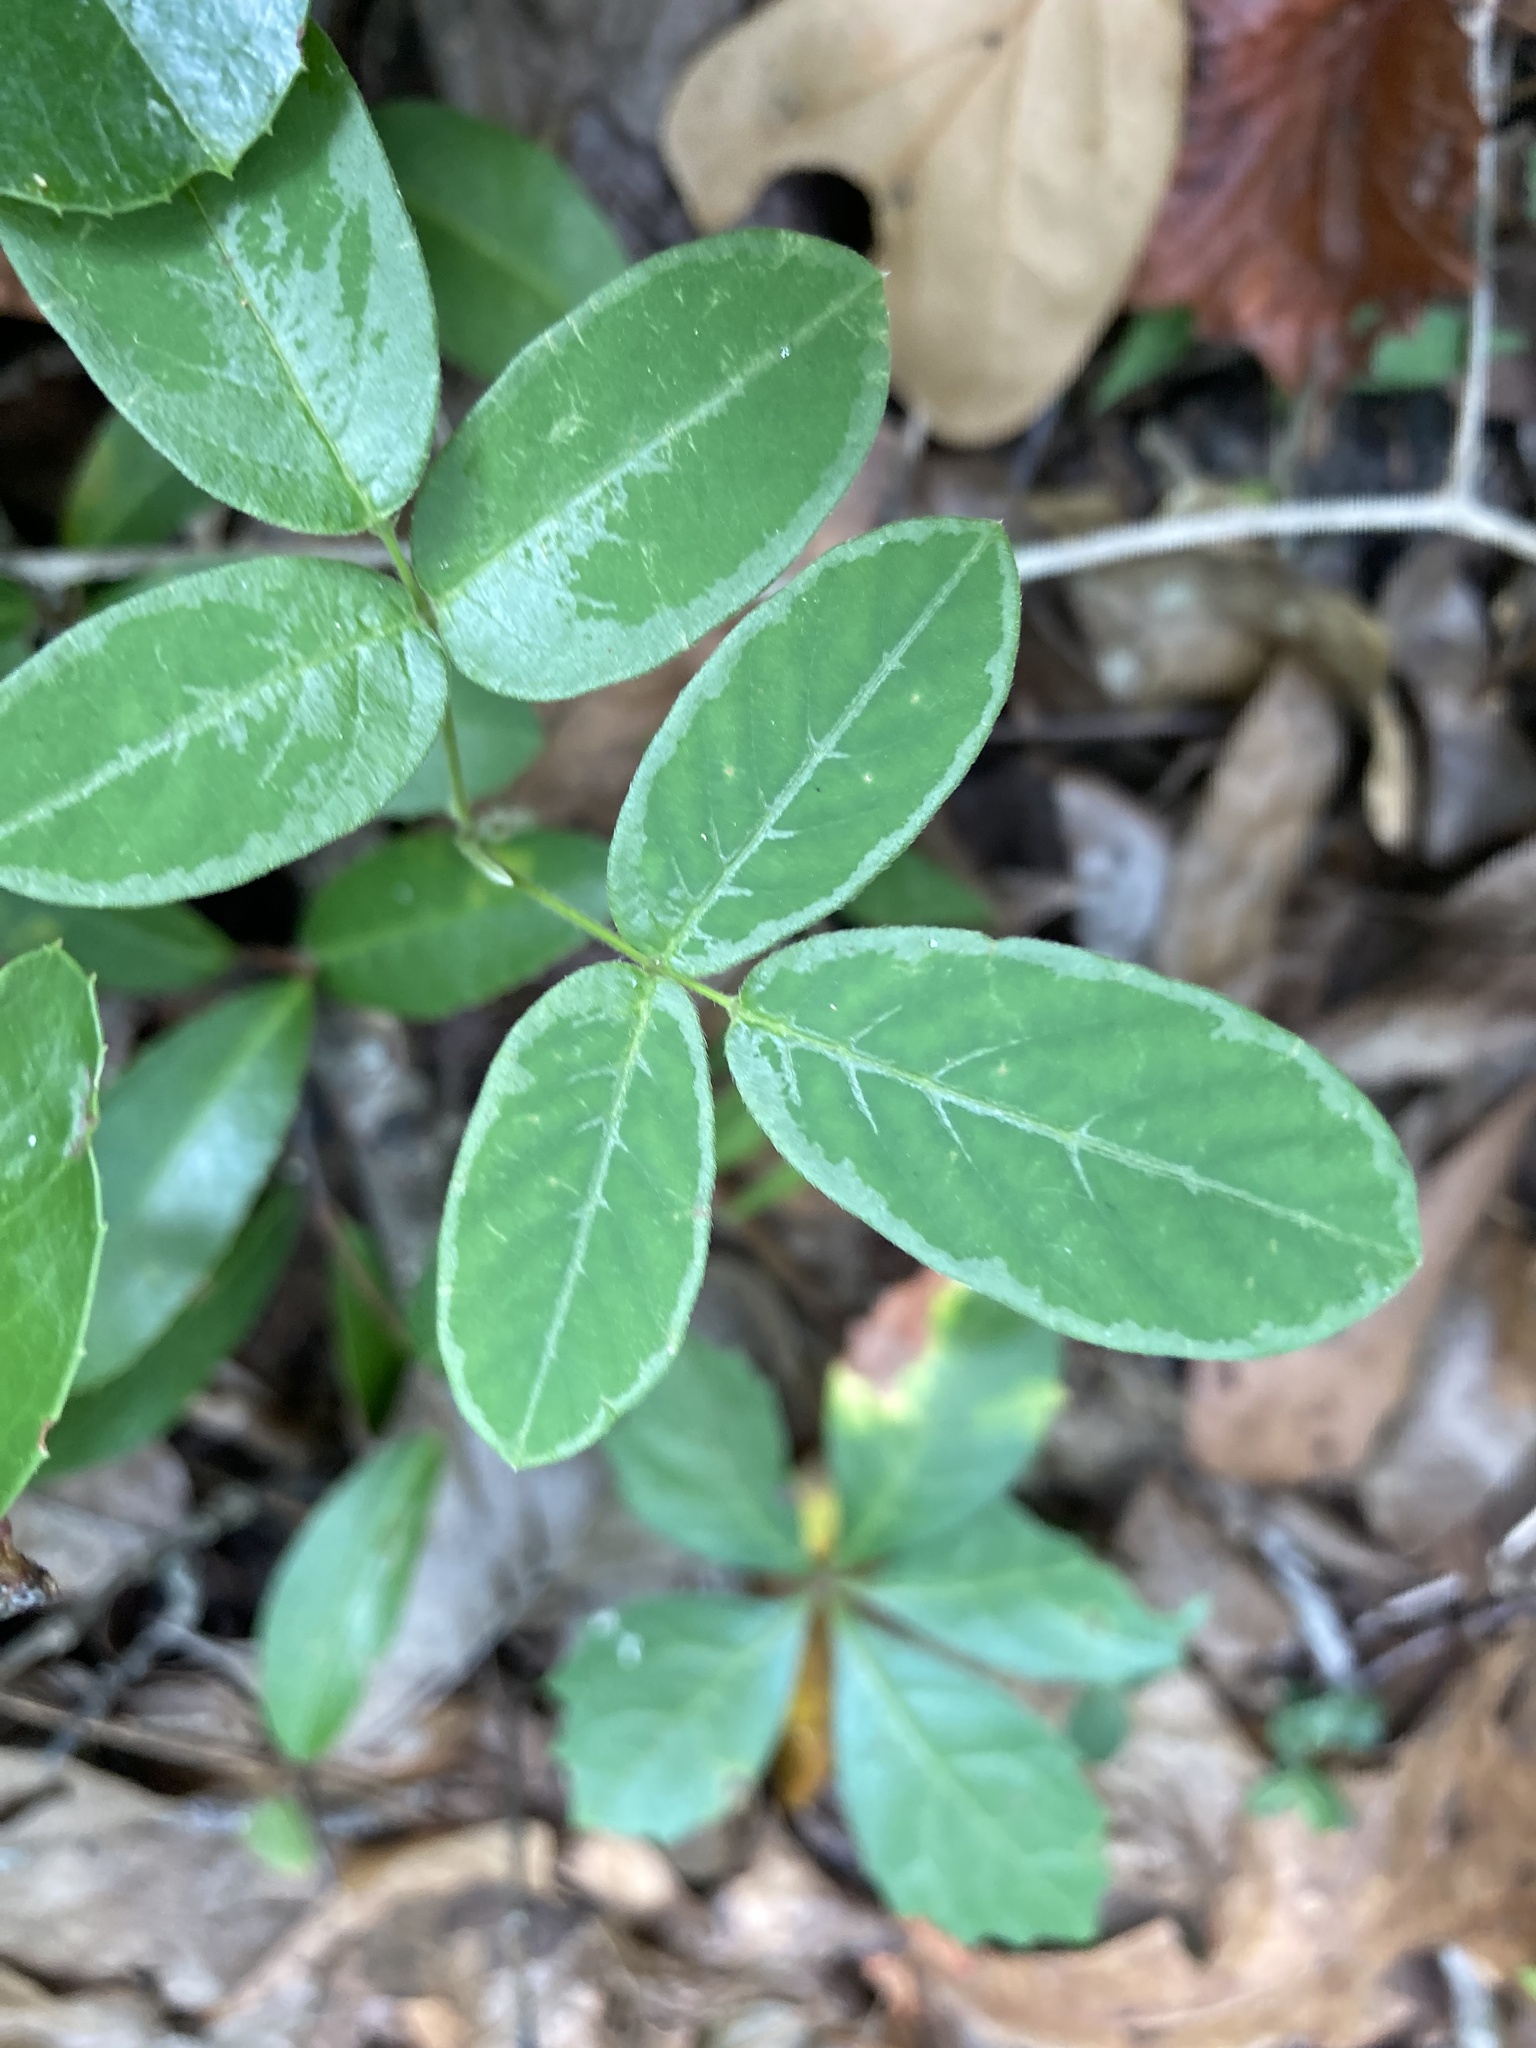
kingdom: Plantae
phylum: Tracheophyta
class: Magnoliopsida
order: Fabales
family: Fabaceae
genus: Desmodium
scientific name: Desmodium incanum
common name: Tickclover
